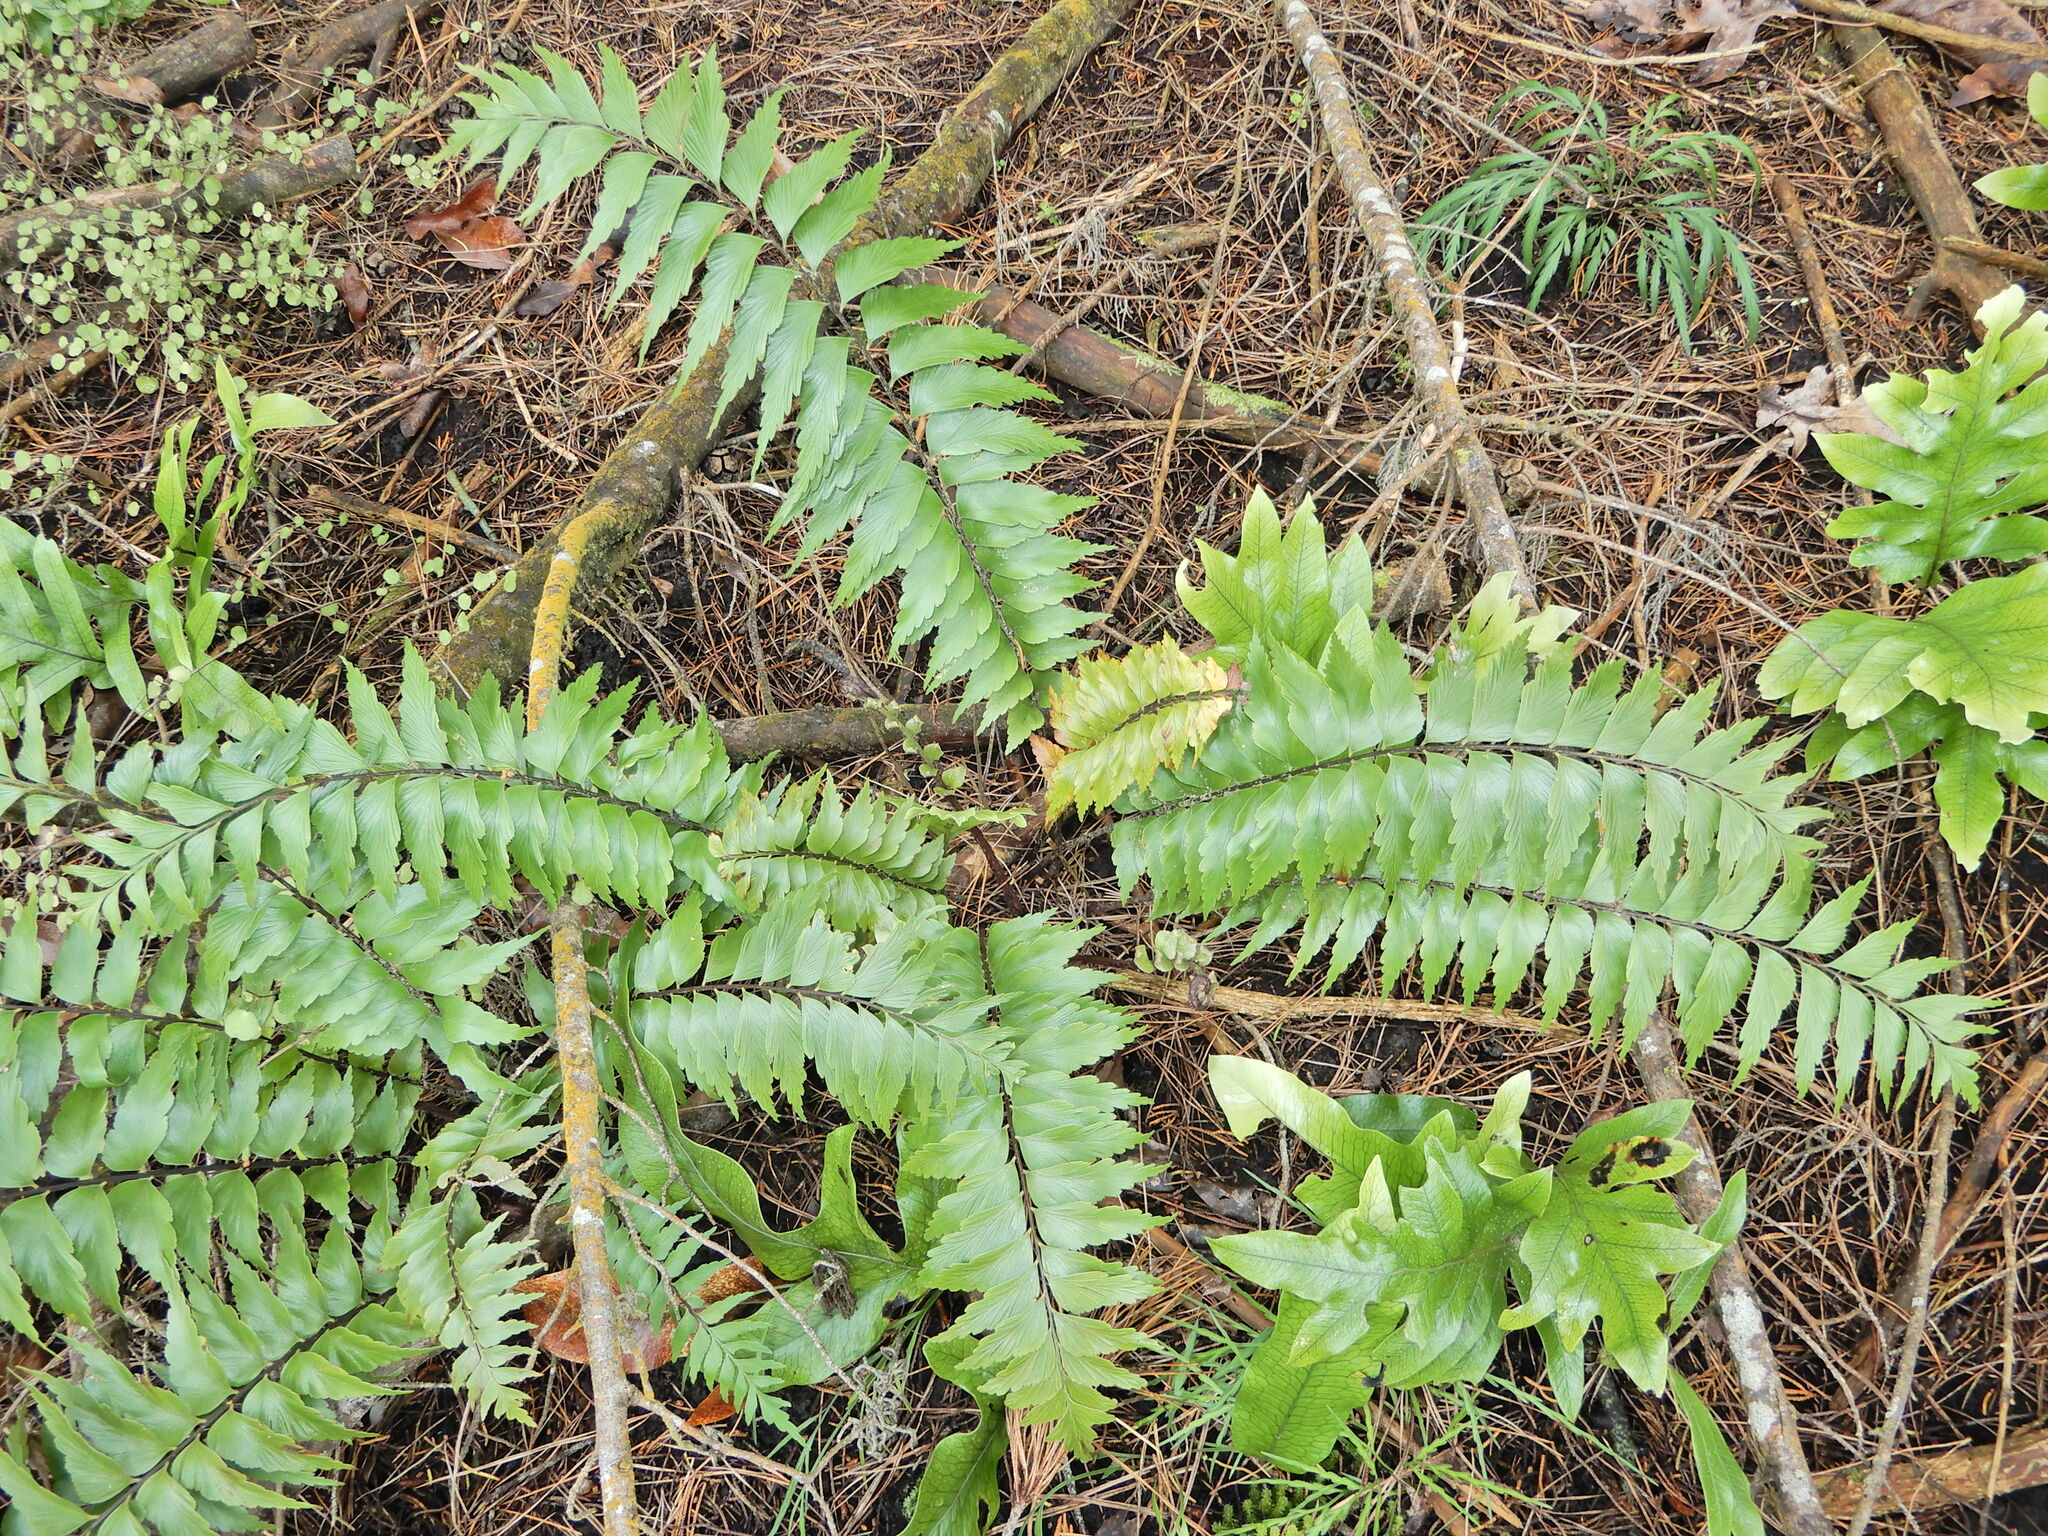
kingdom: Plantae
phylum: Tracheophyta
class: Polypodiopsida
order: Polypodiales
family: Aspleniaceae
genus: Asplenium
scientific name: Asplenium polyodon
